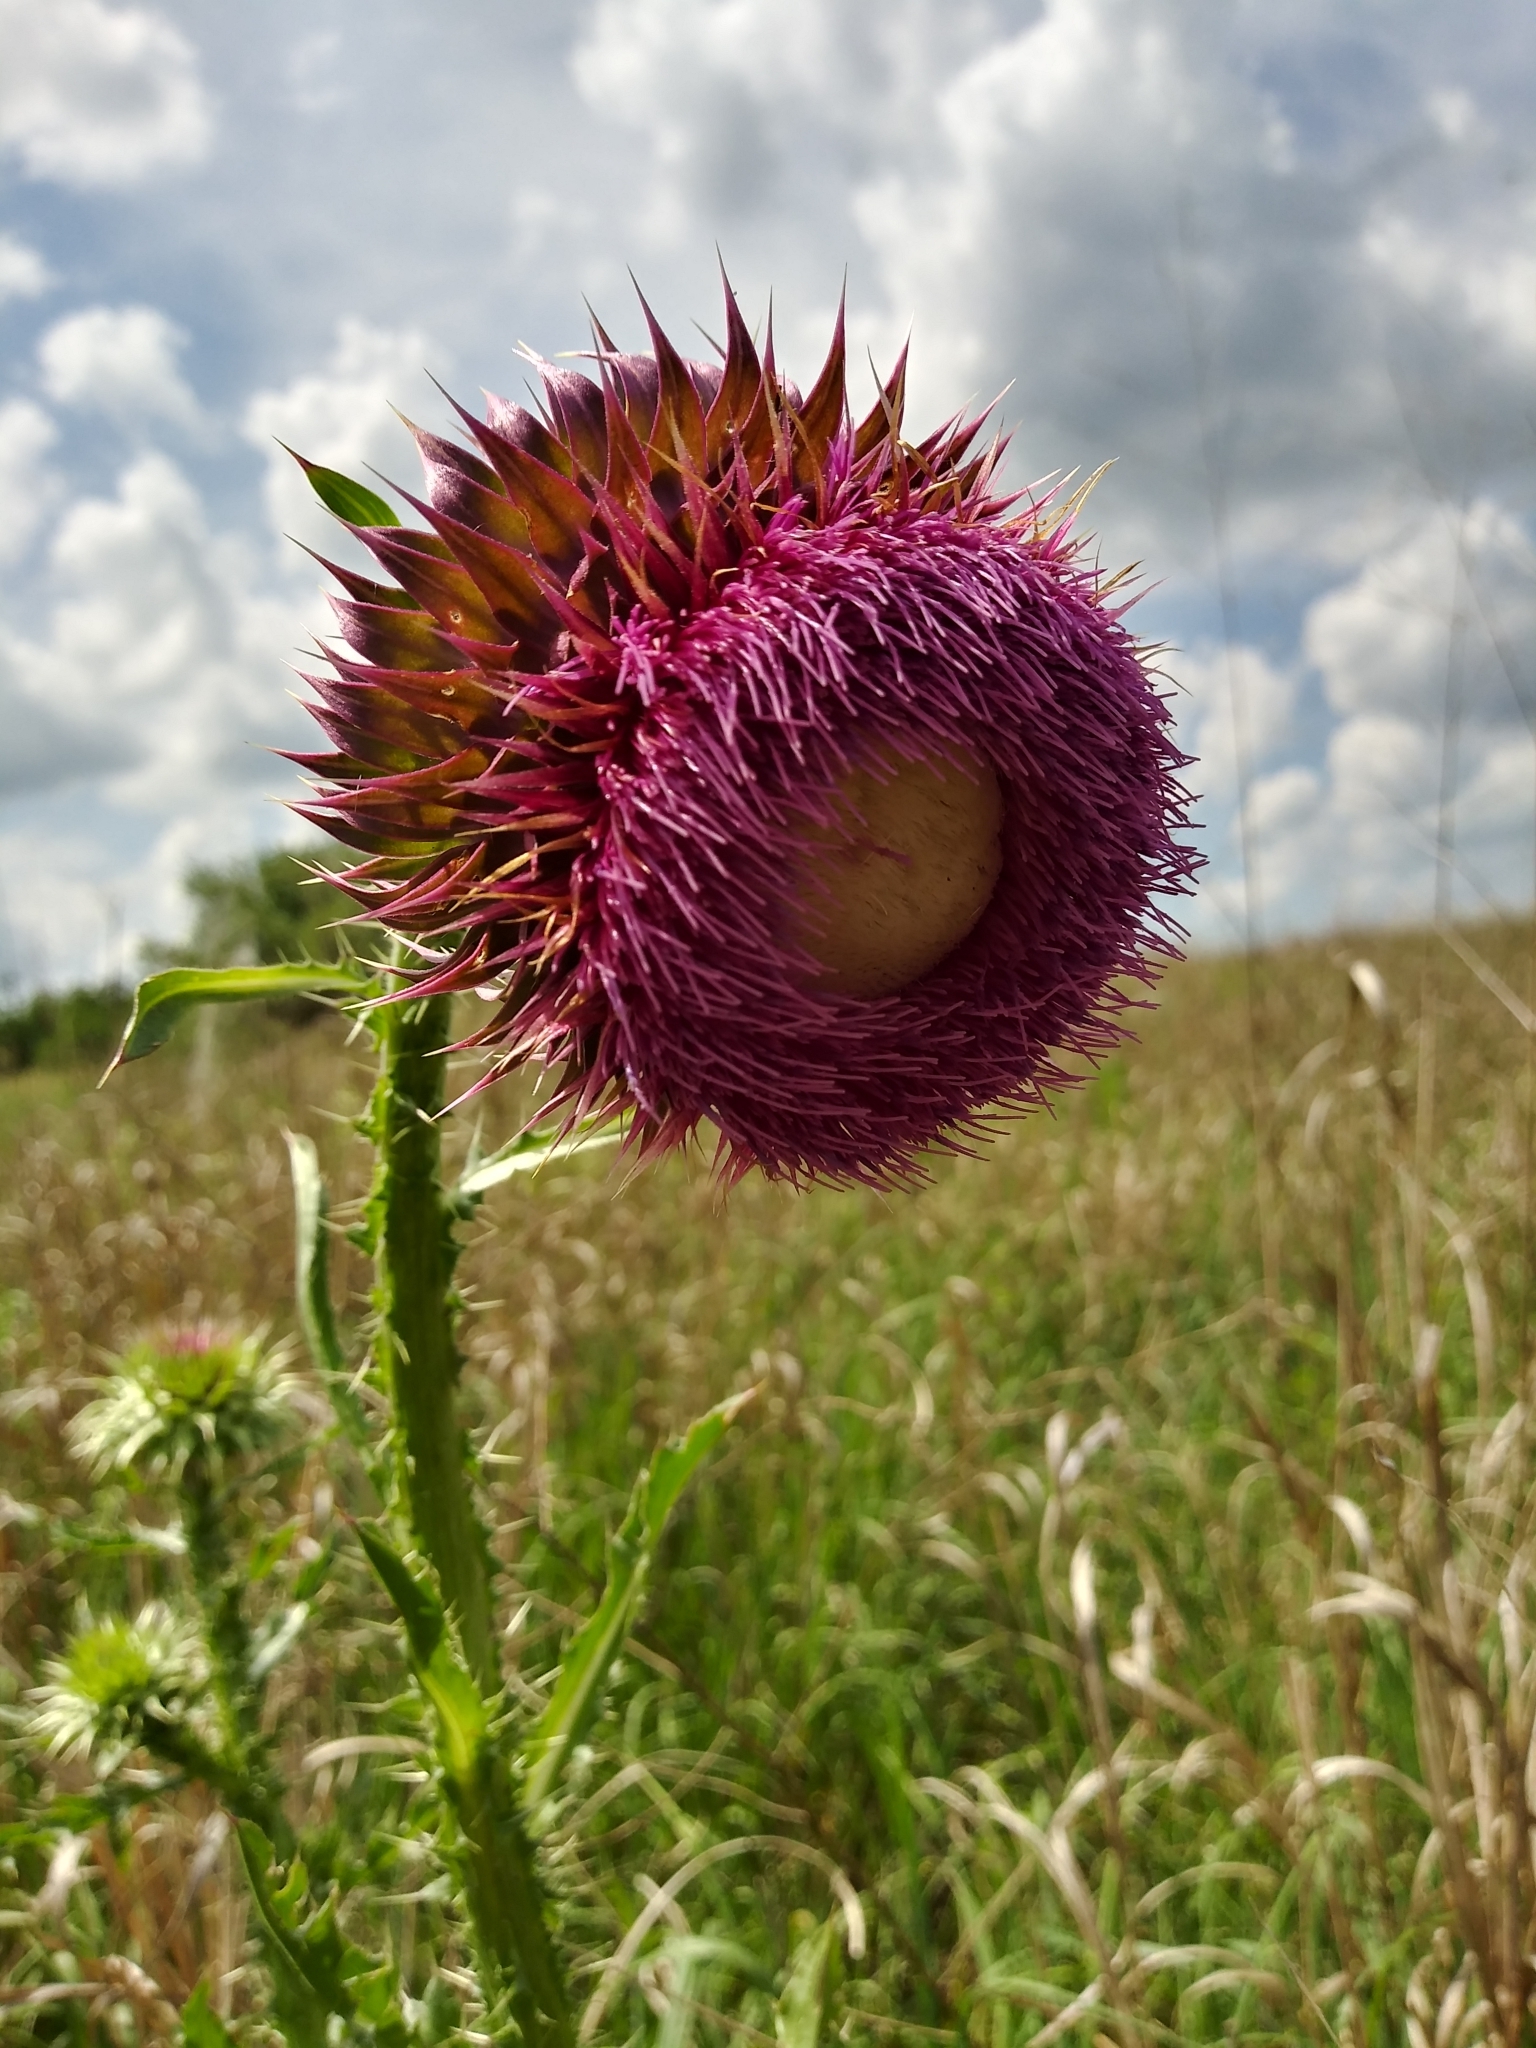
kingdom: Plantae
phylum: Tracheophyta
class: Magnoliopsida
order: Asterales
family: Asteraceae
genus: Carduus
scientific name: Carduus nutans
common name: Musk thistle
